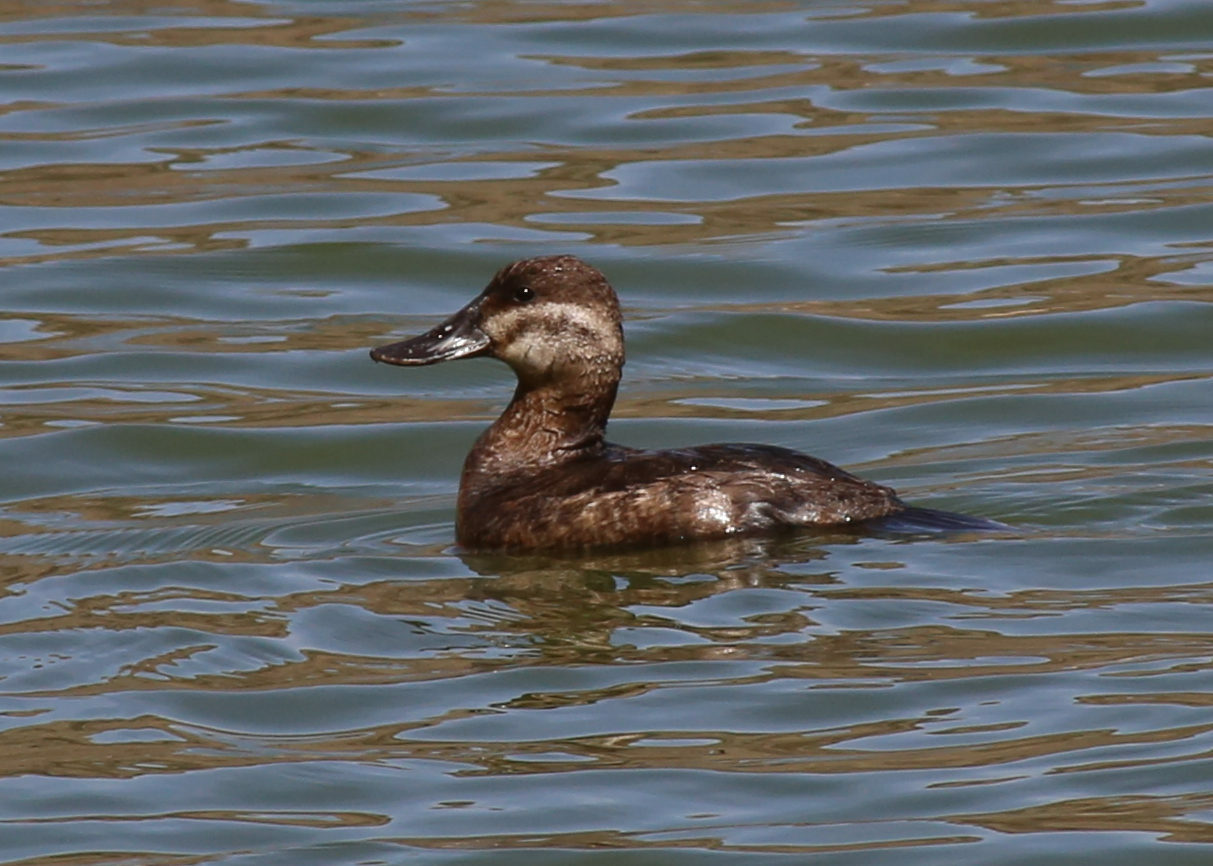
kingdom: Animalia
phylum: Chordata
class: Aves
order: Anseriformes
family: Anatidae
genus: Oxyura
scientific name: Oxyura jamaicensis
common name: Ruddy duck
